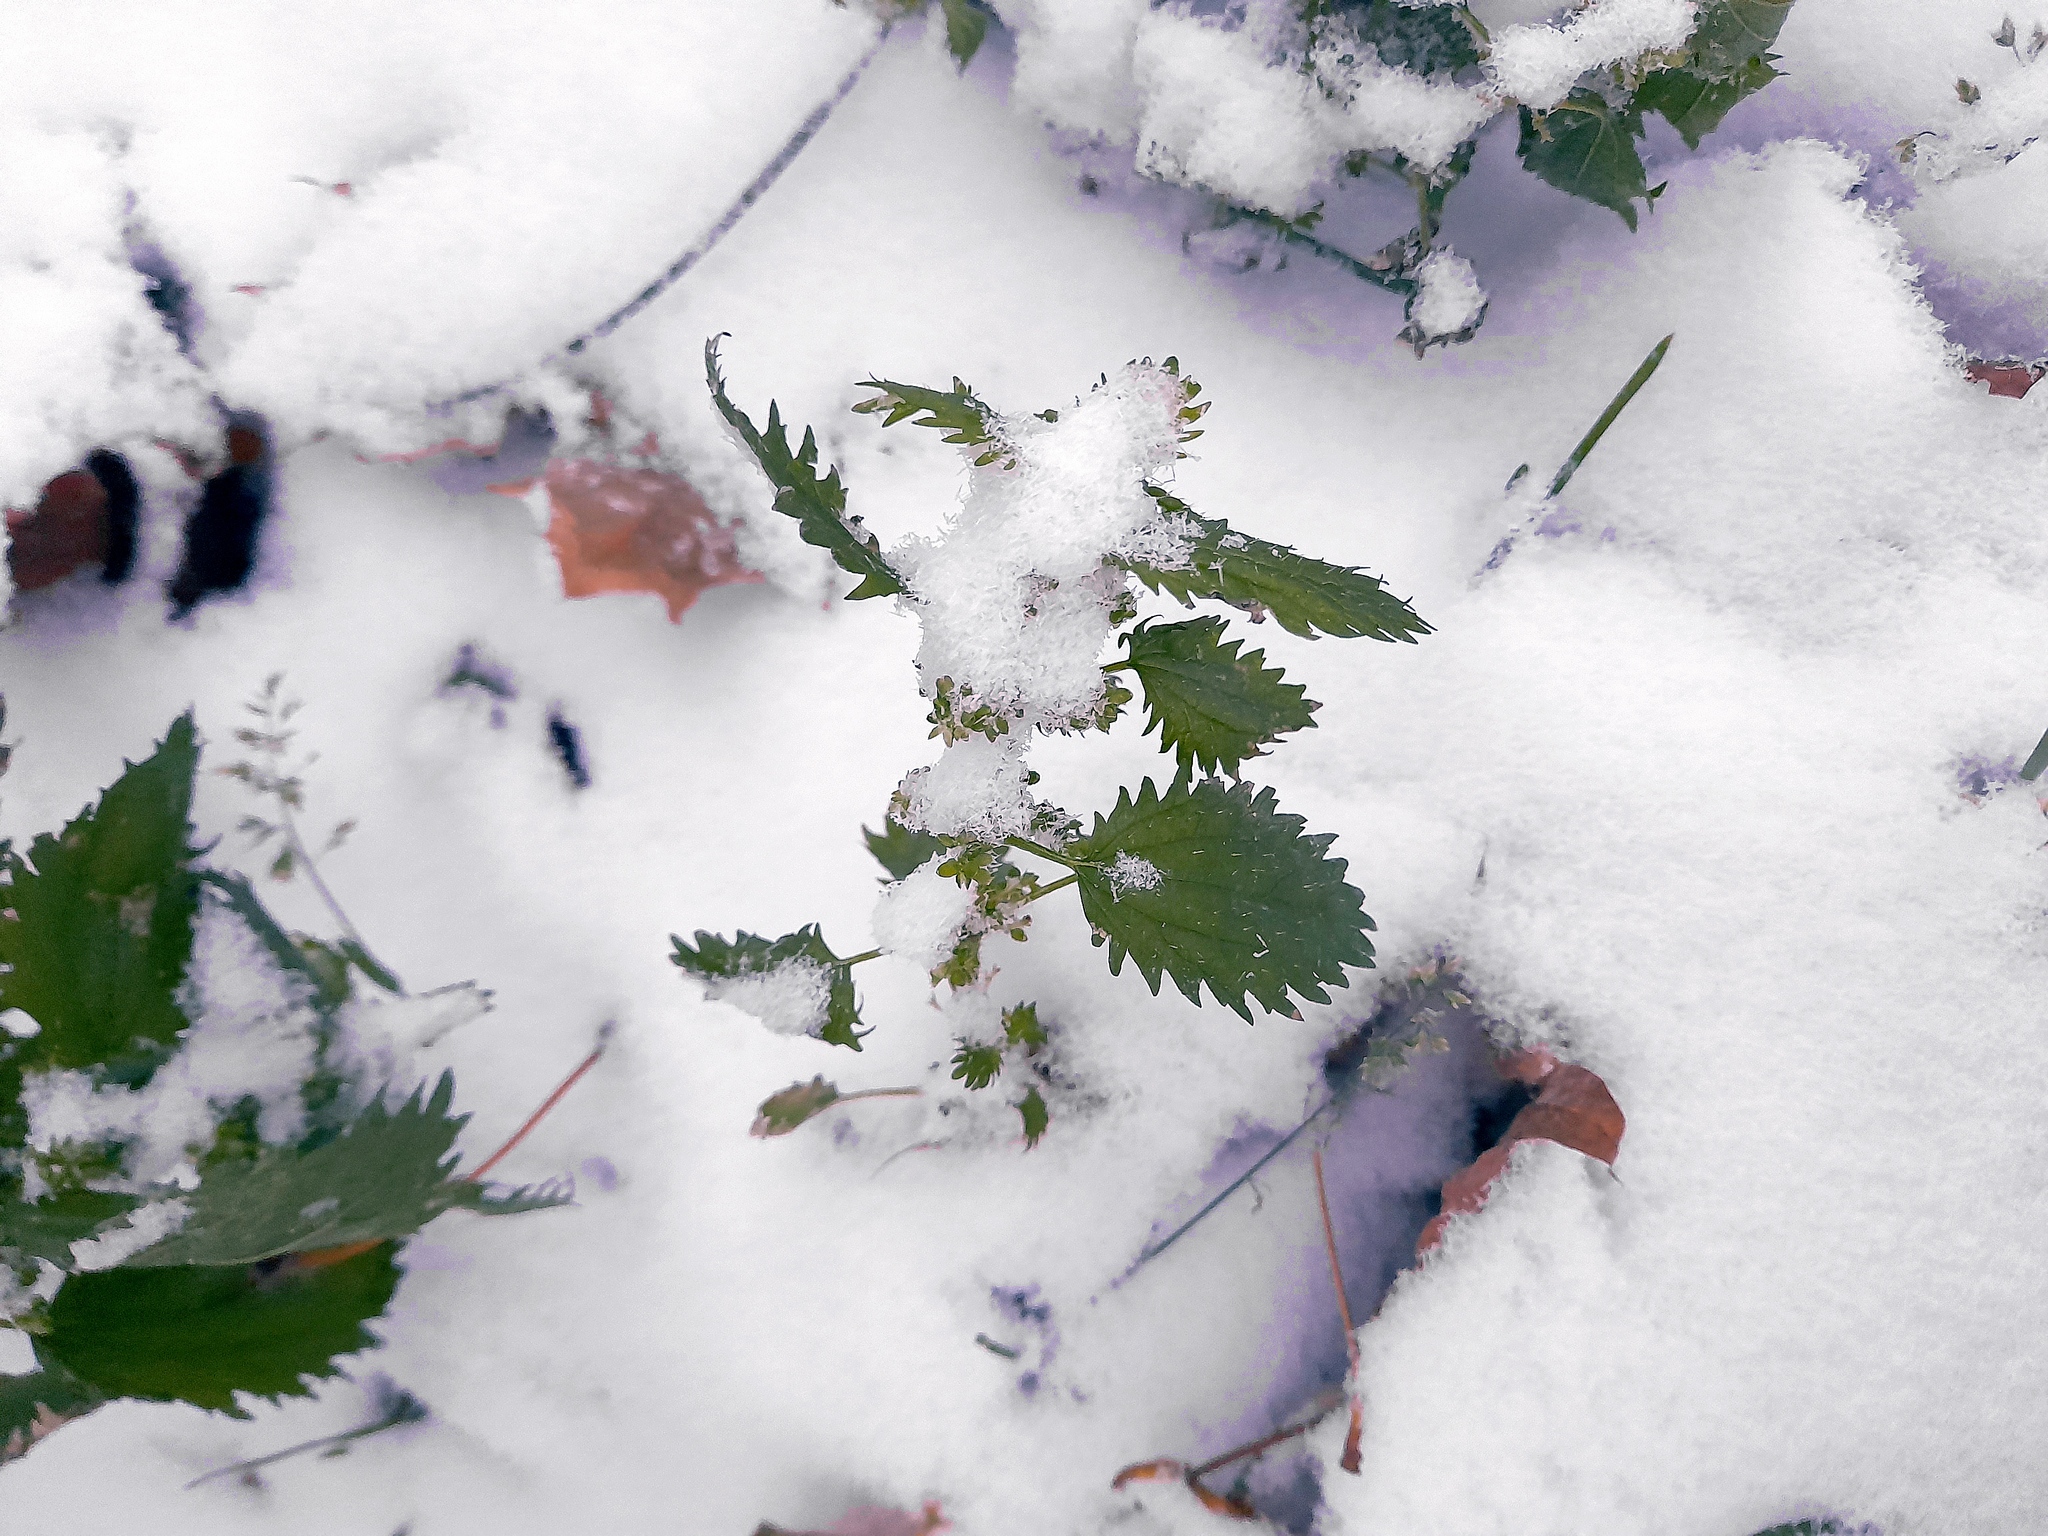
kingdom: Plantae
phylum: Tracheophyta
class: Magnoliopsida
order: Rosales
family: Urticaceae
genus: Urtica
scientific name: Urtica urens
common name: Dwarf nettle
